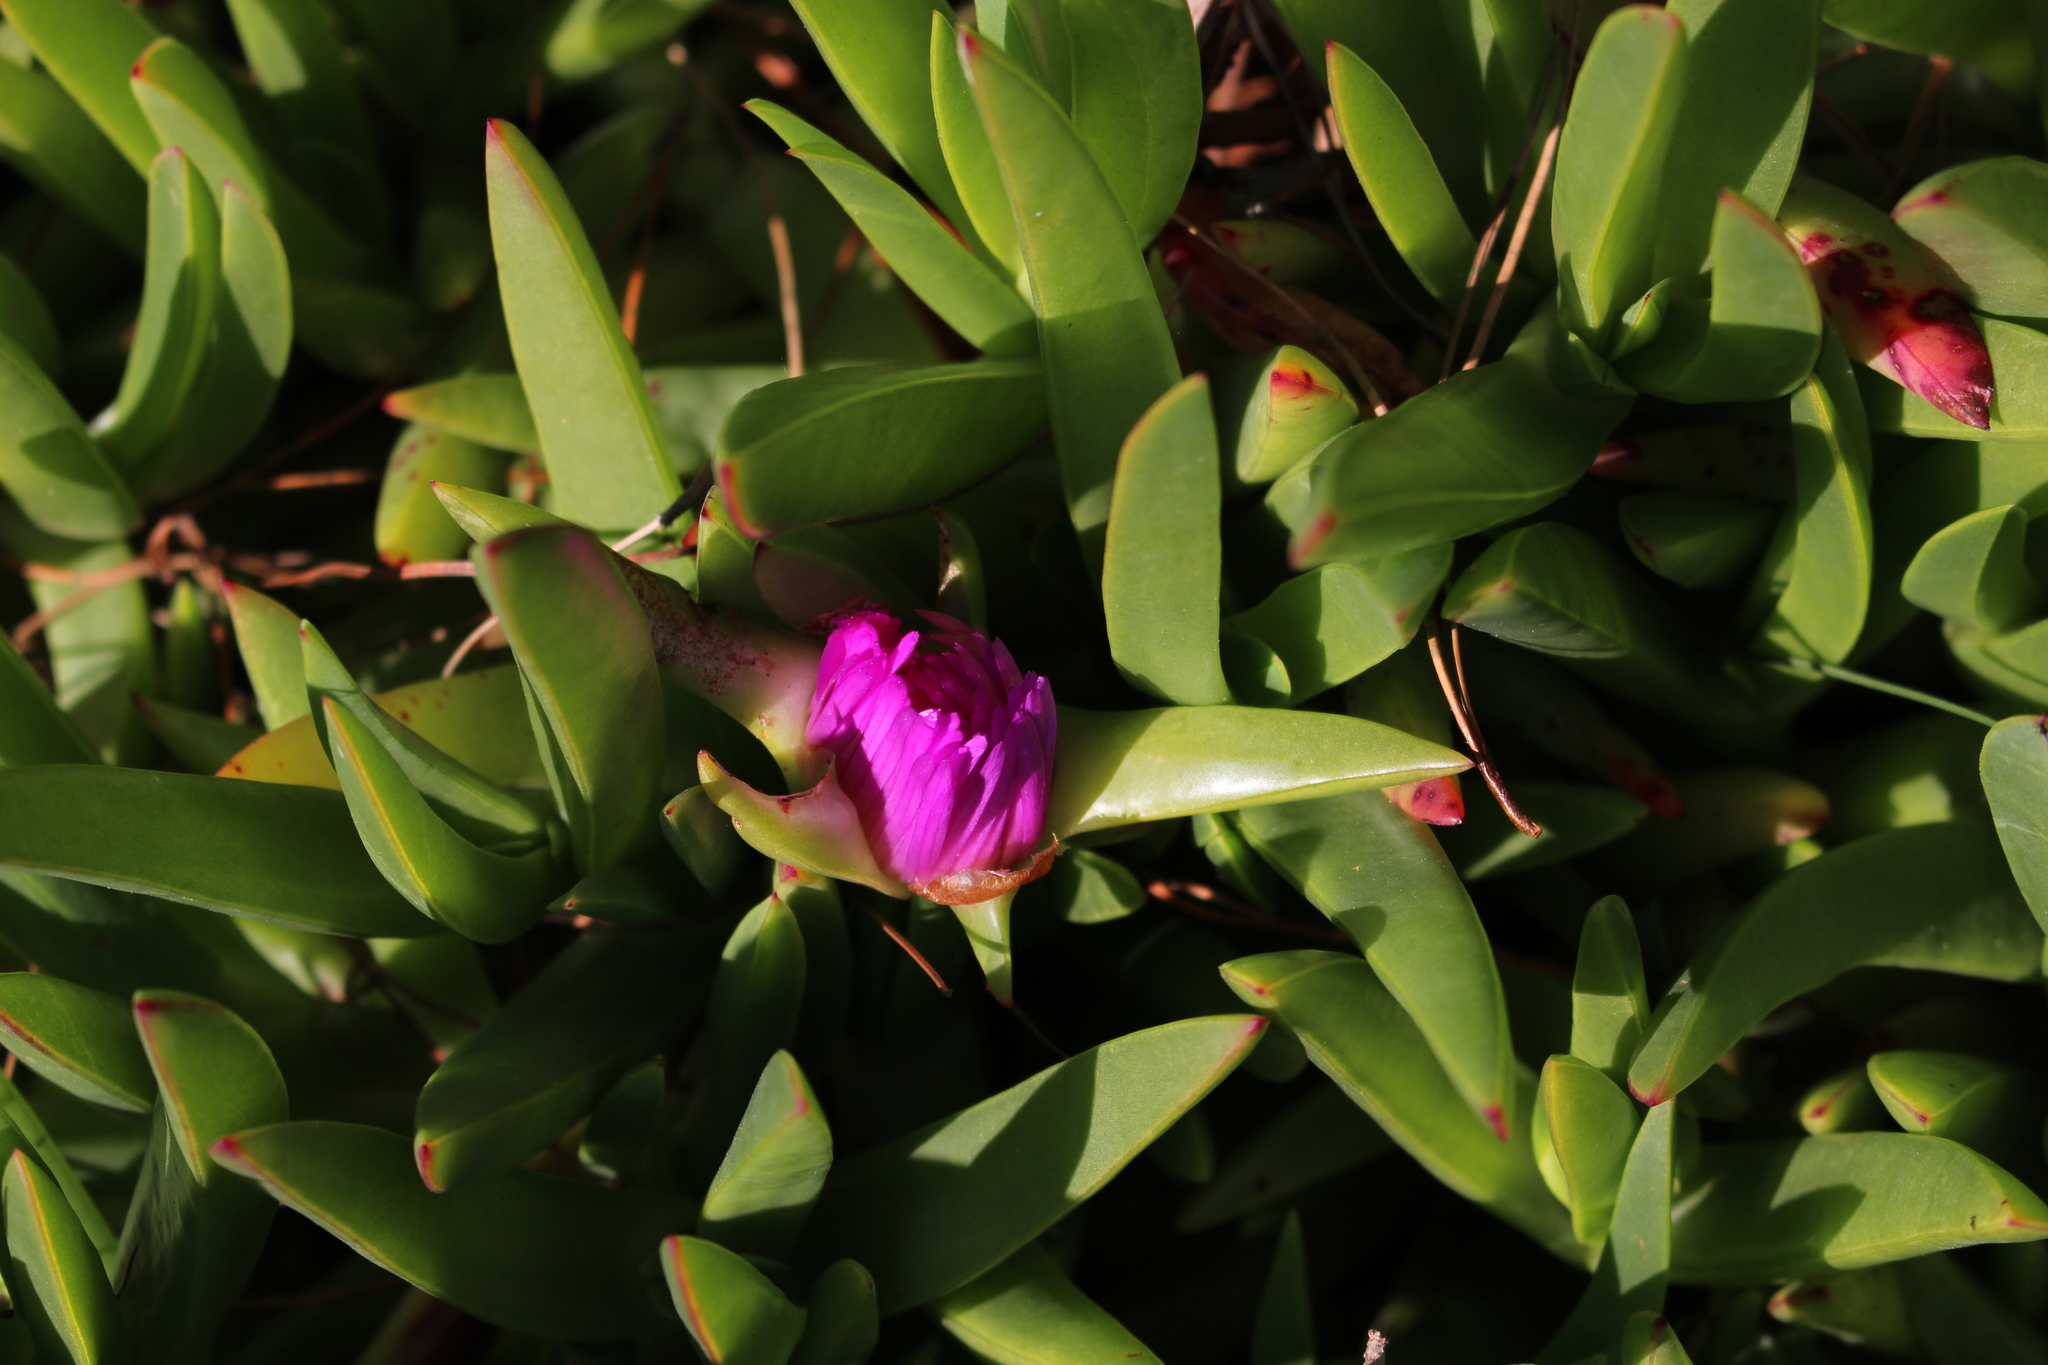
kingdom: Plantae
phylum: Tracheophyta
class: Magnoliopsida
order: Caryophyllales
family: Aizoaceae
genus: Carpobrotus
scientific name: Carpobrotus chilensis
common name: Sea fig
